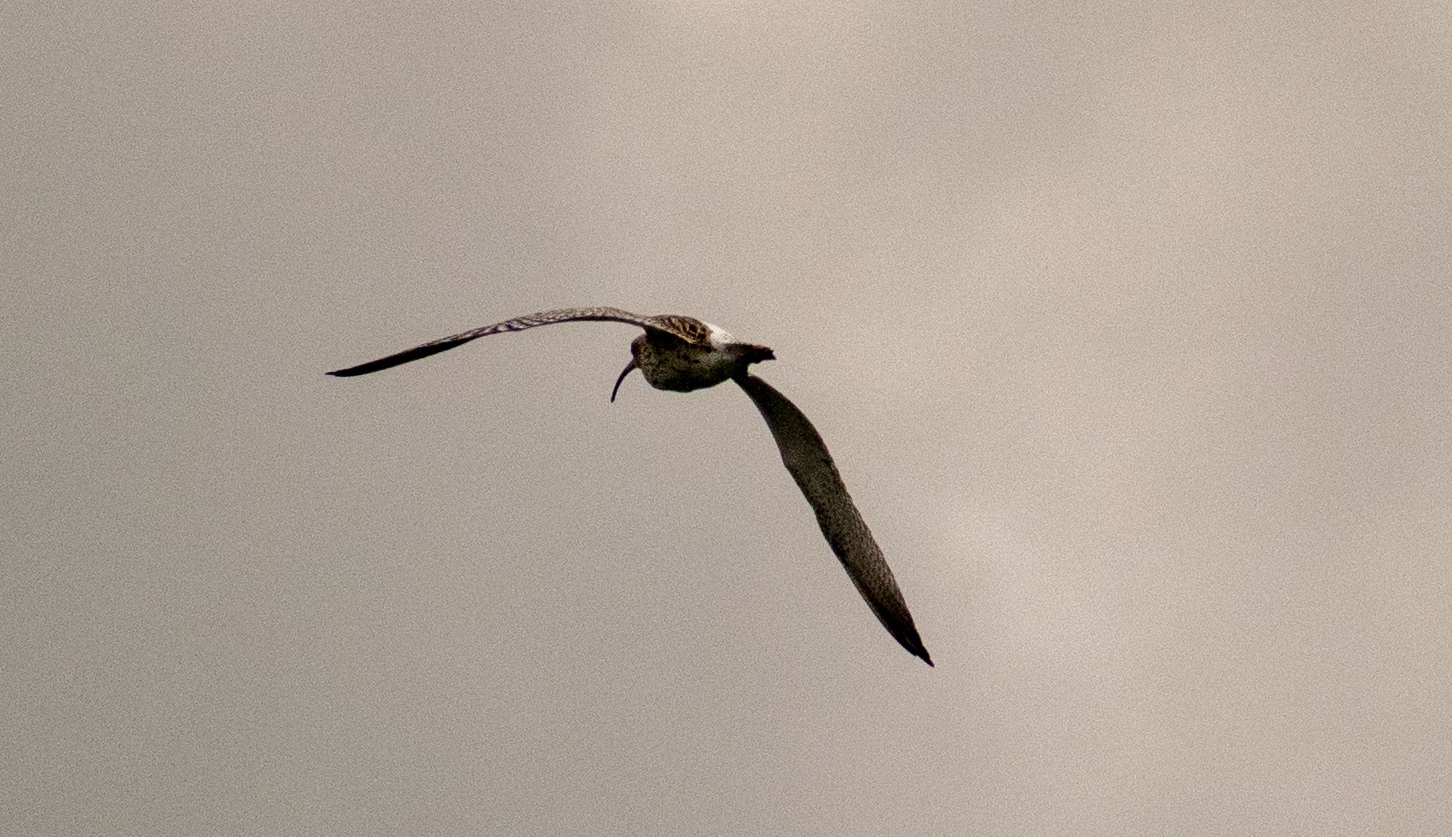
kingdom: Animalia
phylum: Chordata
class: Aves
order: Charadriiformes
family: Scolopacidae
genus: Numenius
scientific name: Numenius arquata
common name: Eurasian curlew
